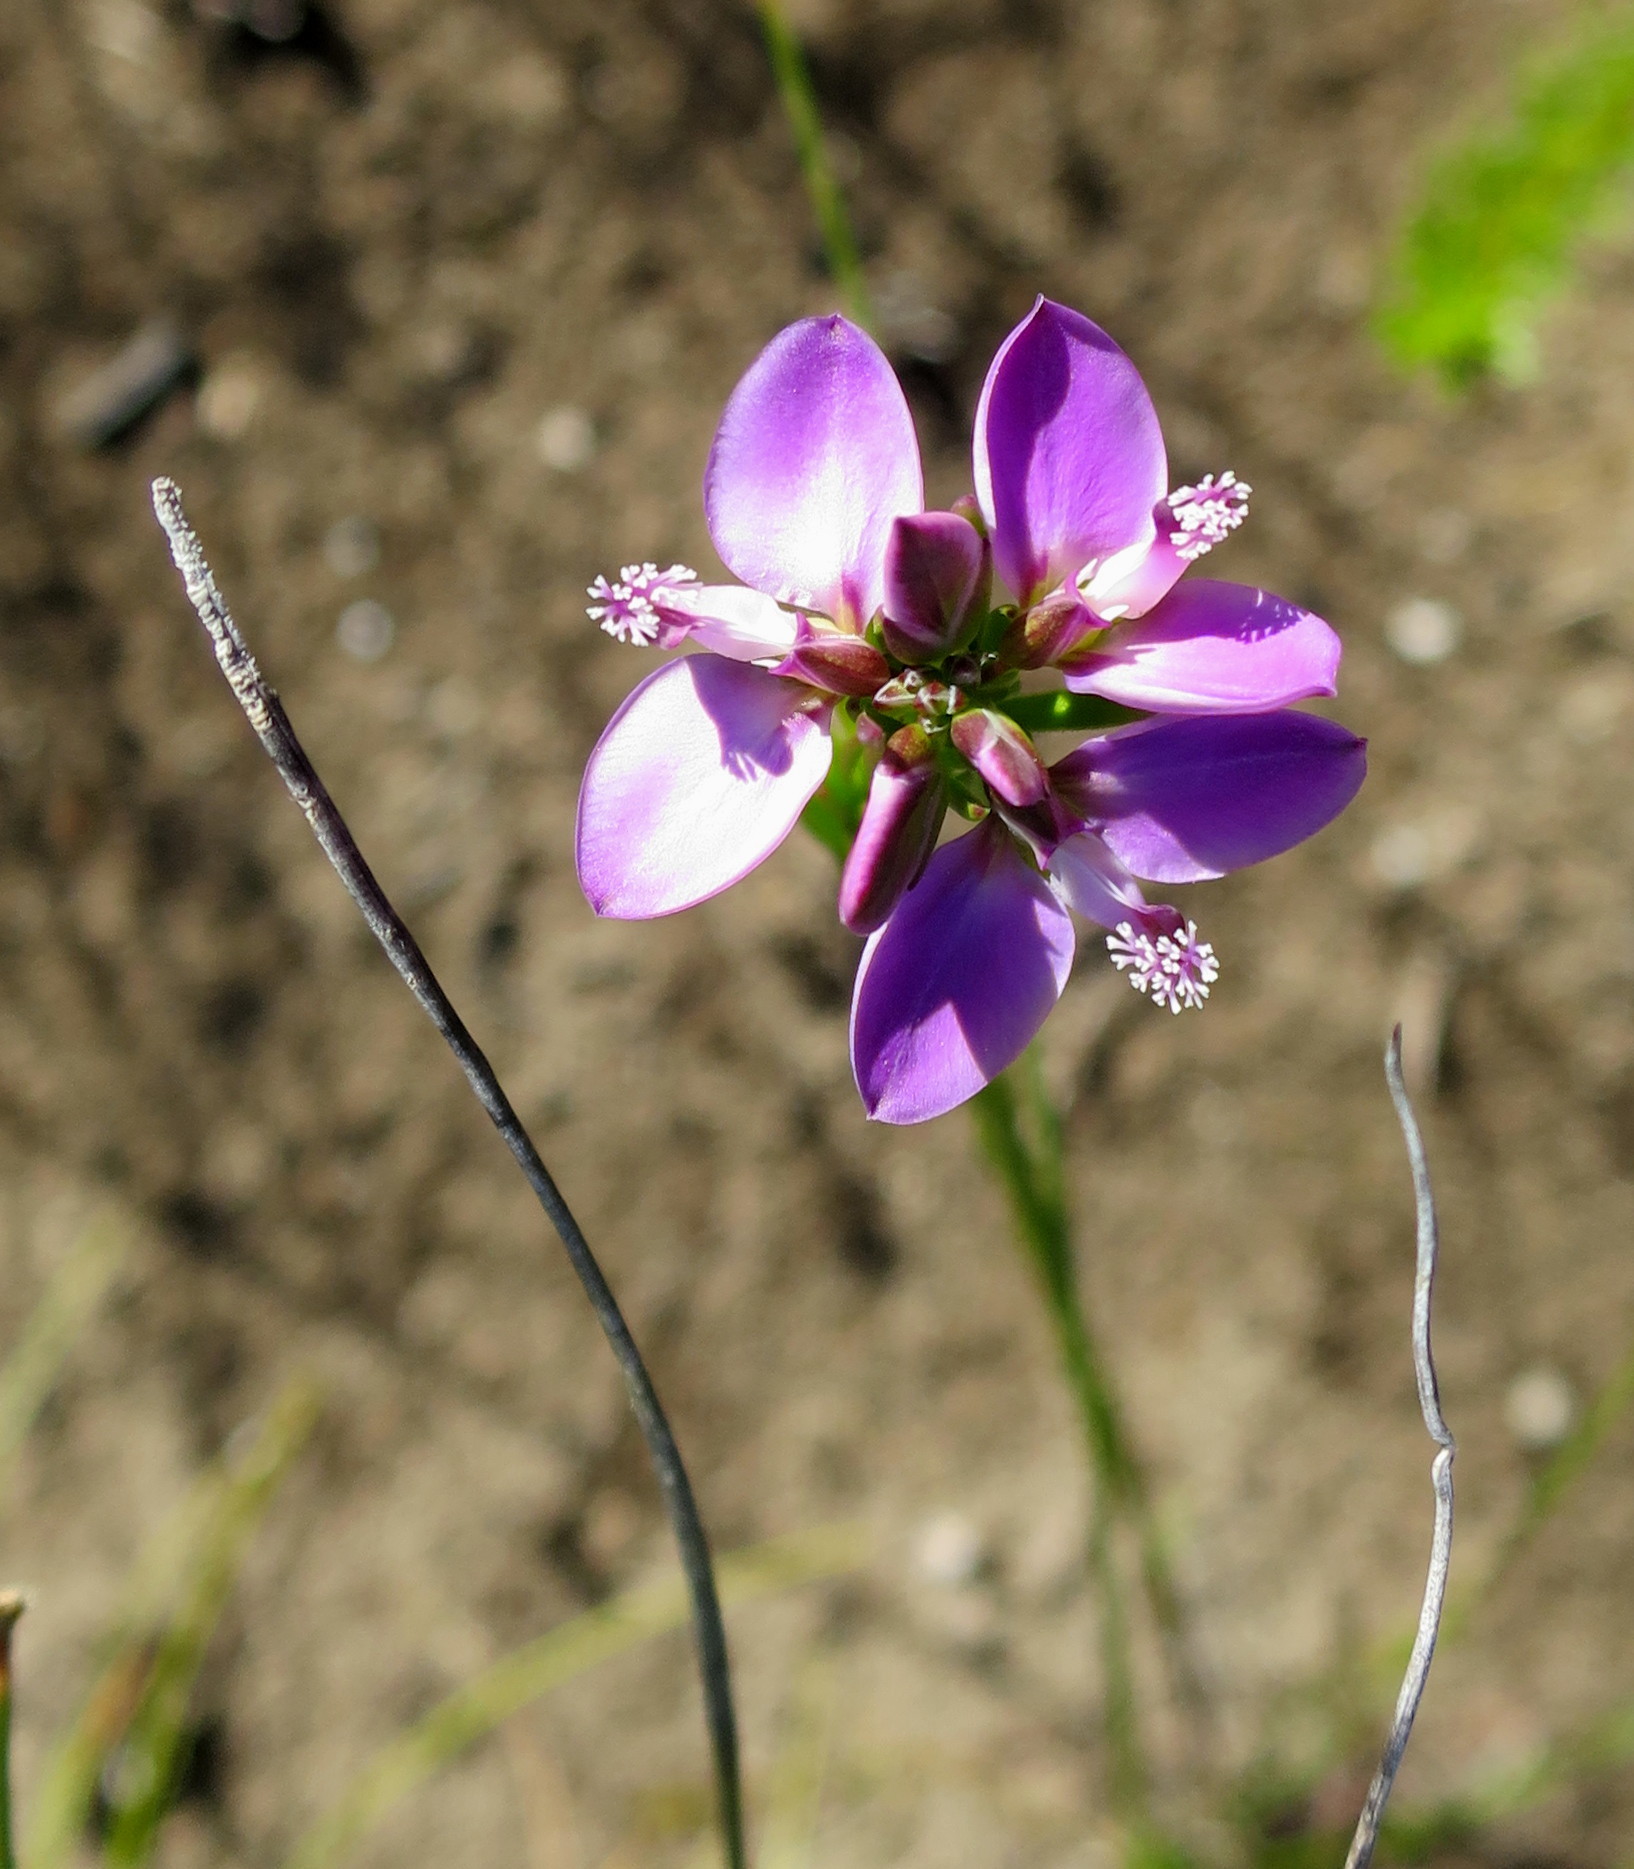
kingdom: Plantae
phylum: Tracheophyta
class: Magnoliopsida
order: Fabales
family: Polygalaceae
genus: Polygala
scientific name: Polygala ericifolia
